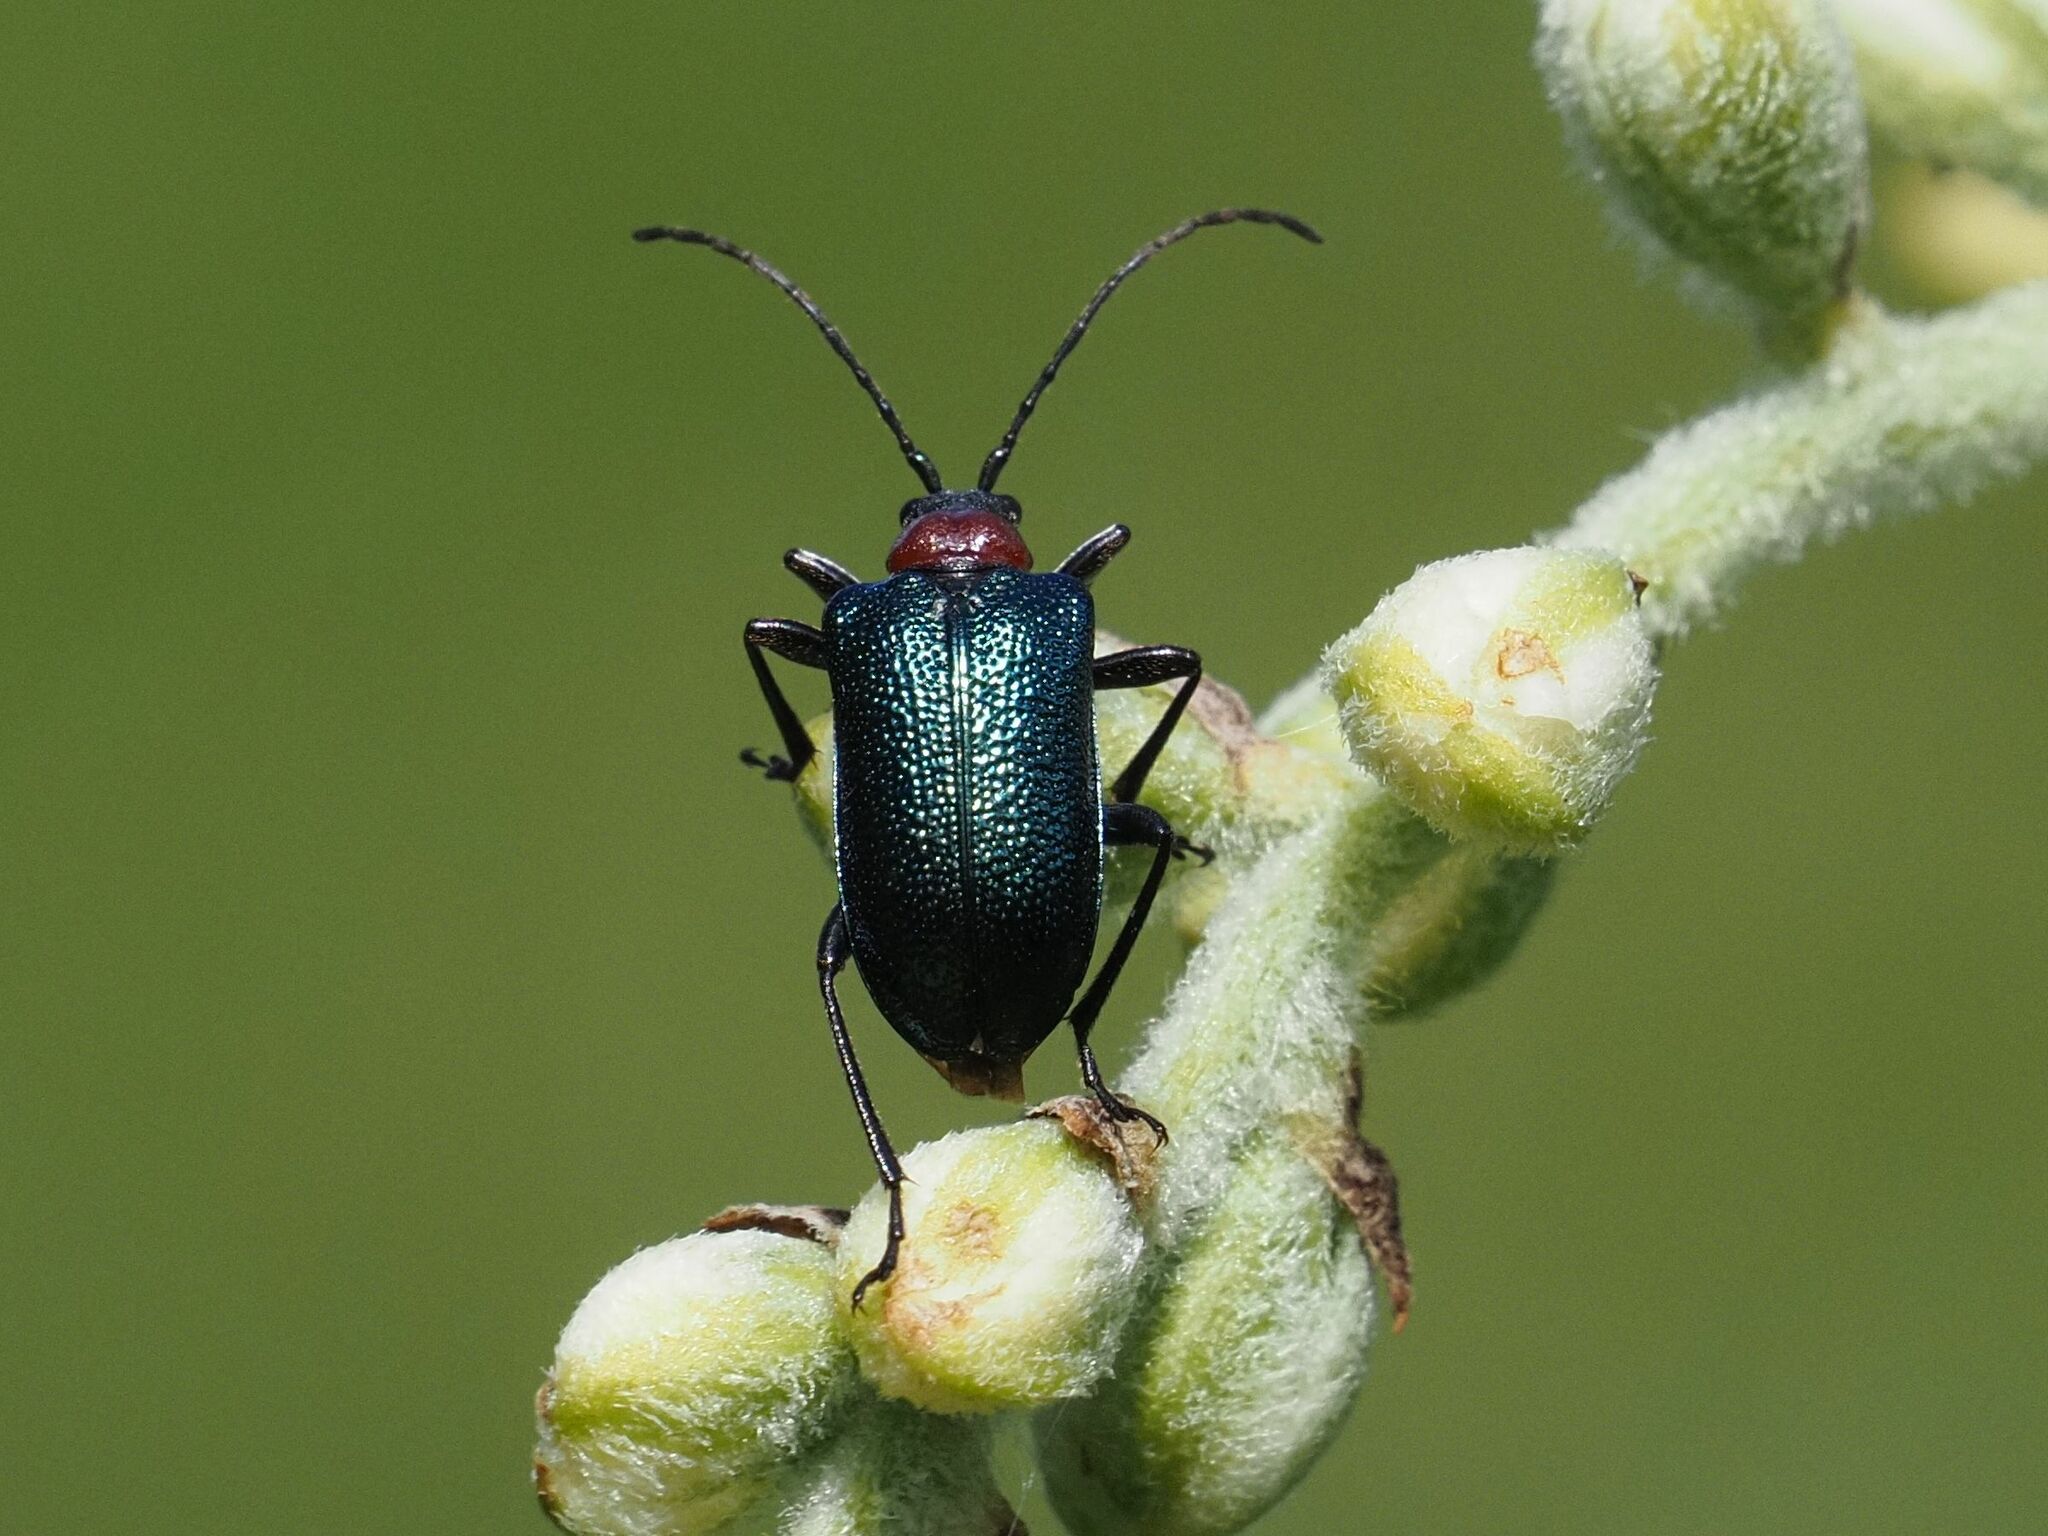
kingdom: Animalia
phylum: Arthropoda
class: Insecta
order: Coleoptera
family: Cerambycidae
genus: Gaurotes
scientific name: Gaurotes virginea
